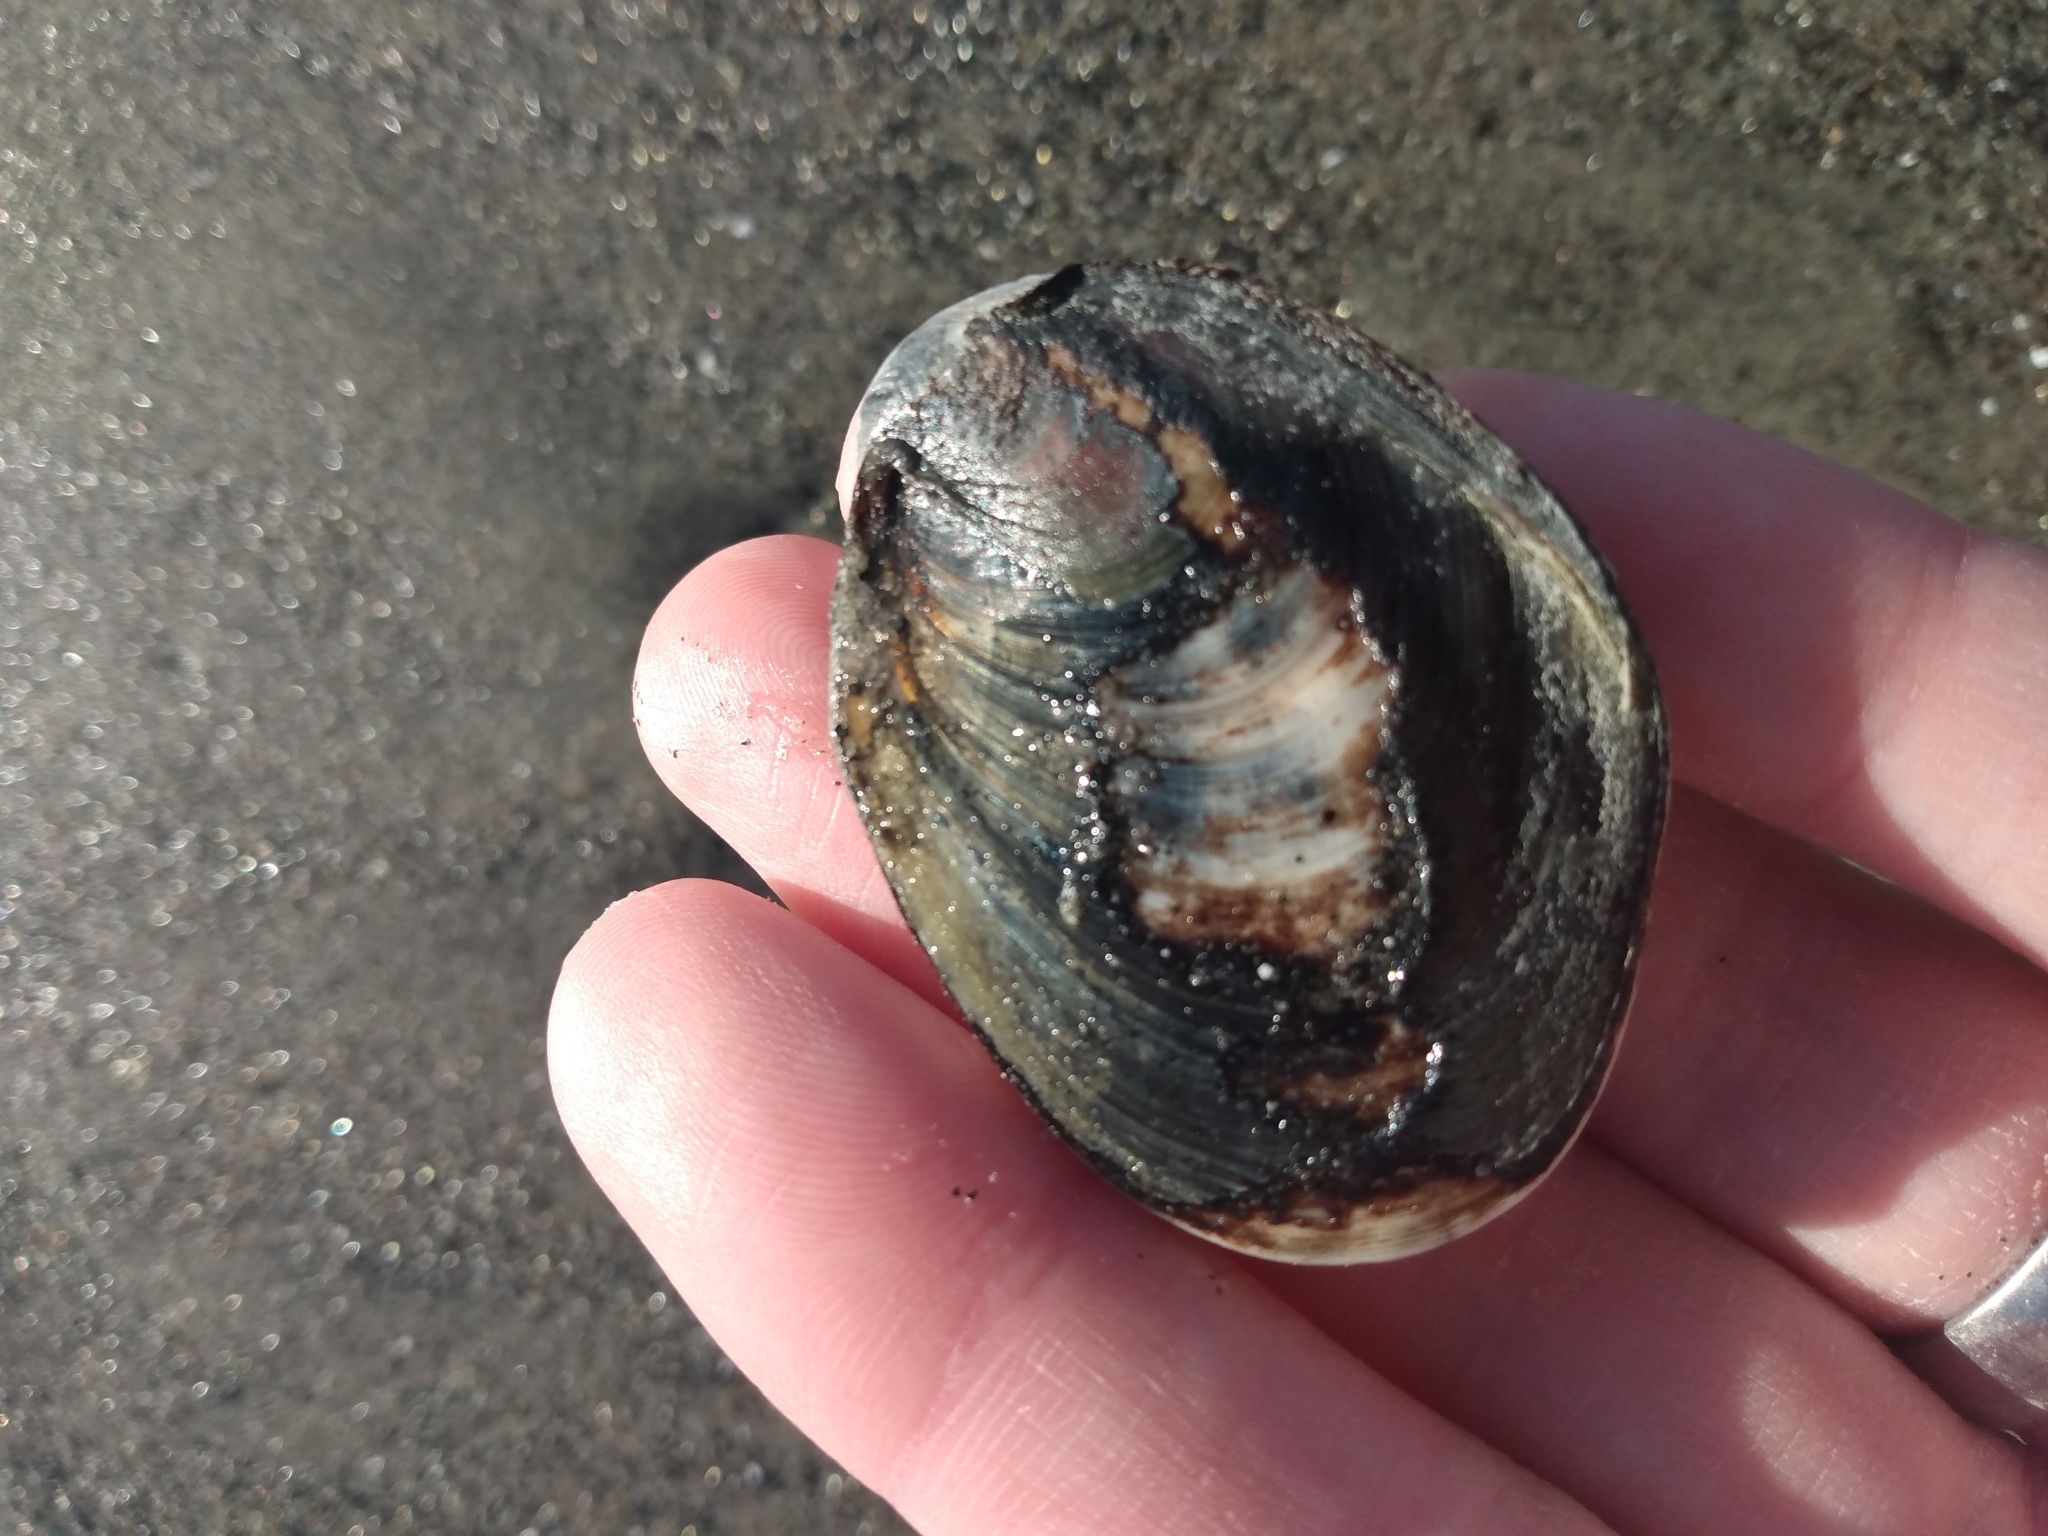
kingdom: Animalia
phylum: Mollusca
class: Gastropoda
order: Trochida
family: Turbinidae
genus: Megastraea
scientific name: Megastraea undosa
